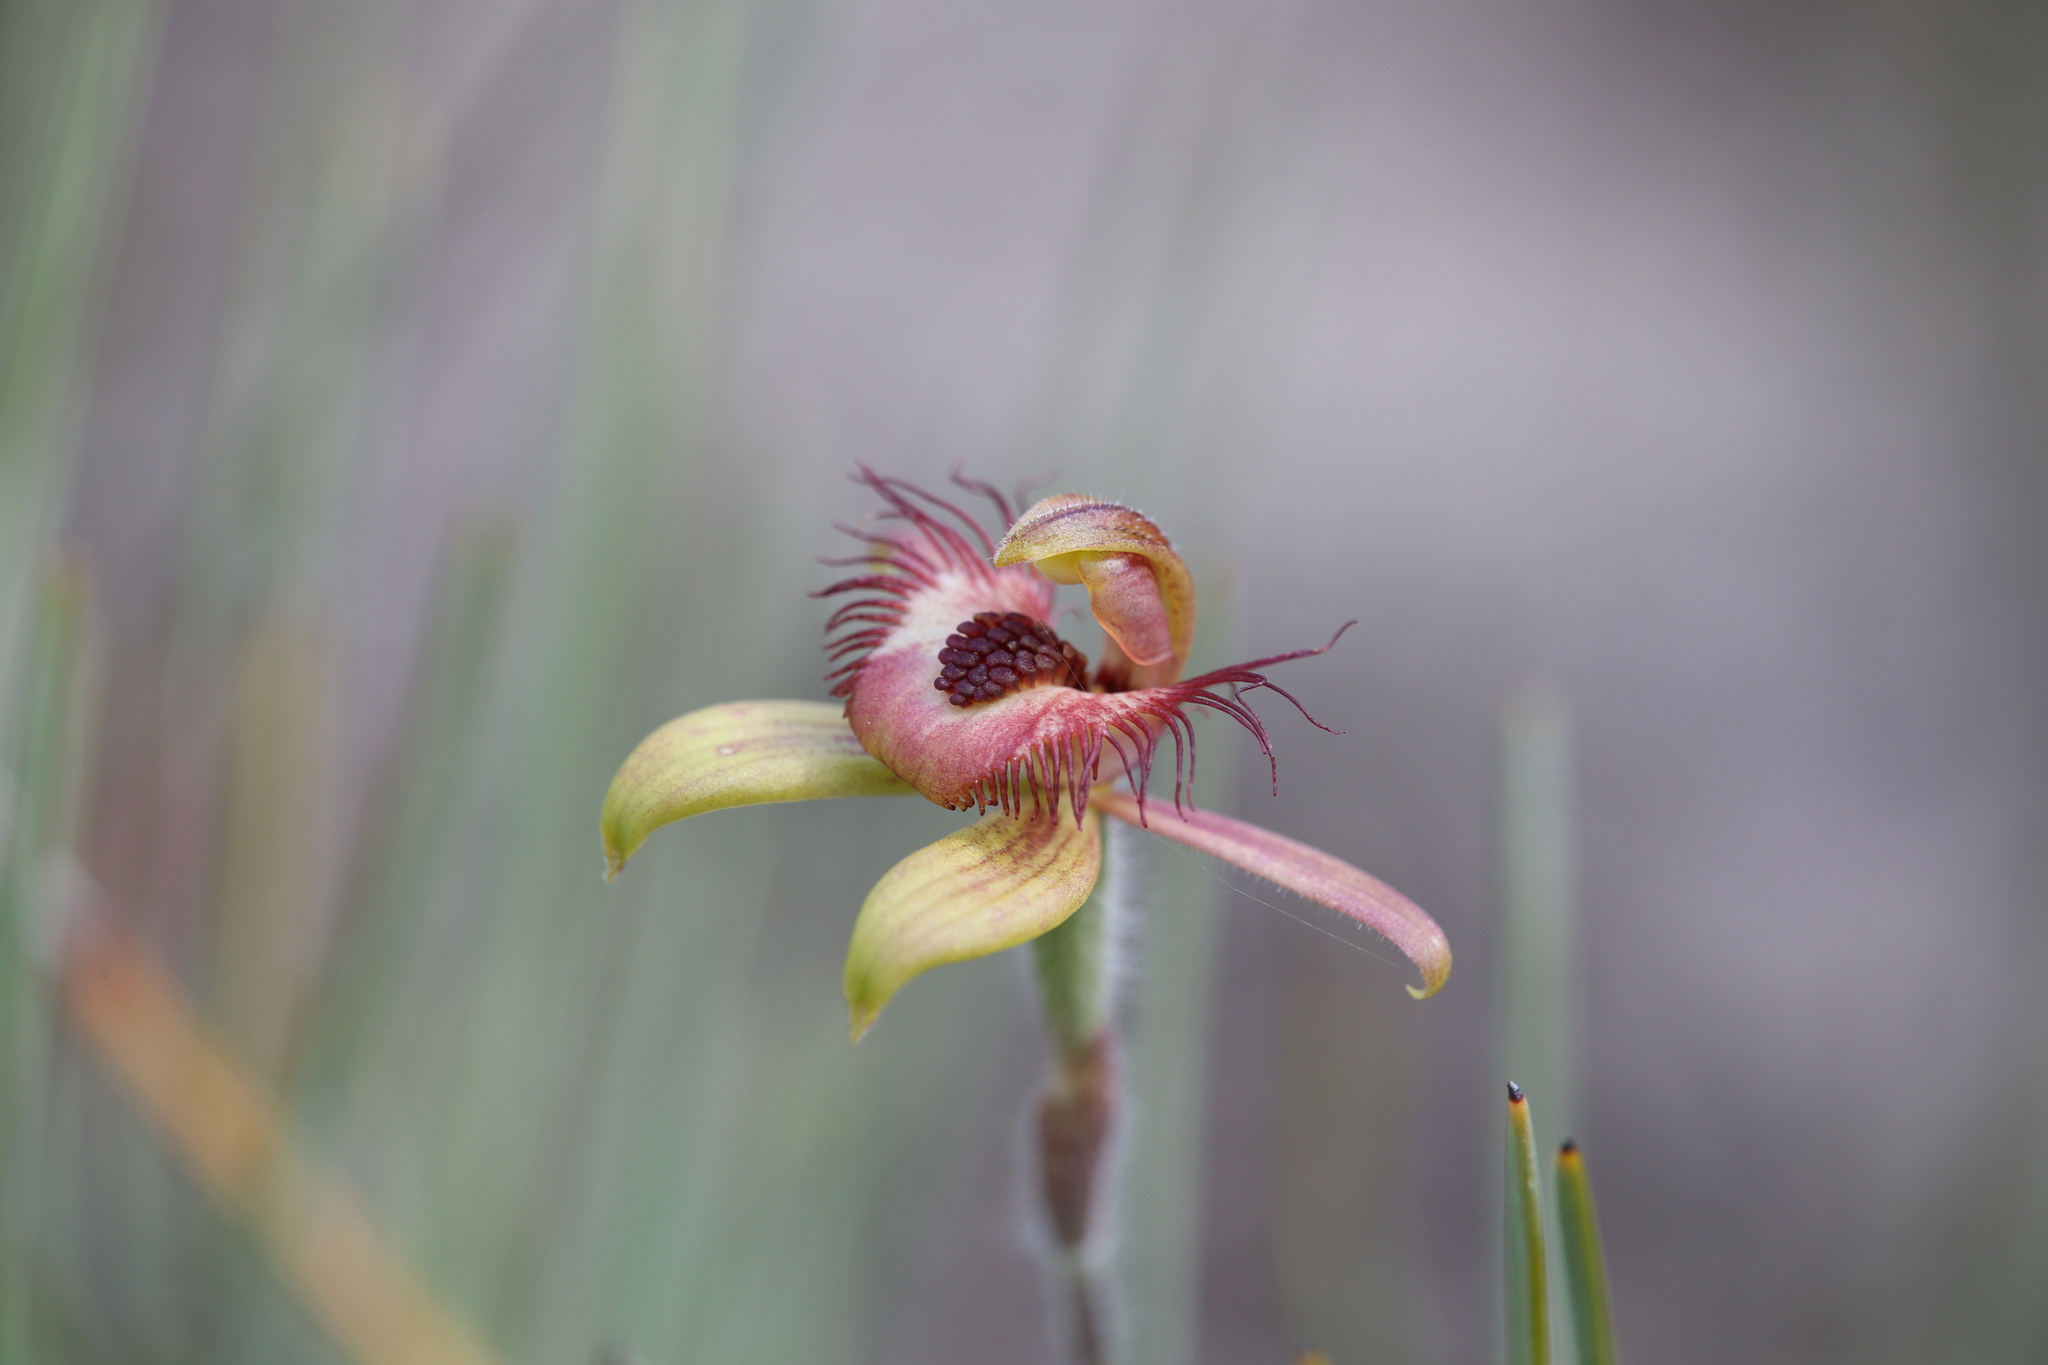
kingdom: Plantae
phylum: Tracheophyta
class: Liliopsida
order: Asparagales
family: Orchidaceae
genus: Caladenia
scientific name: Caladenia discoidea
